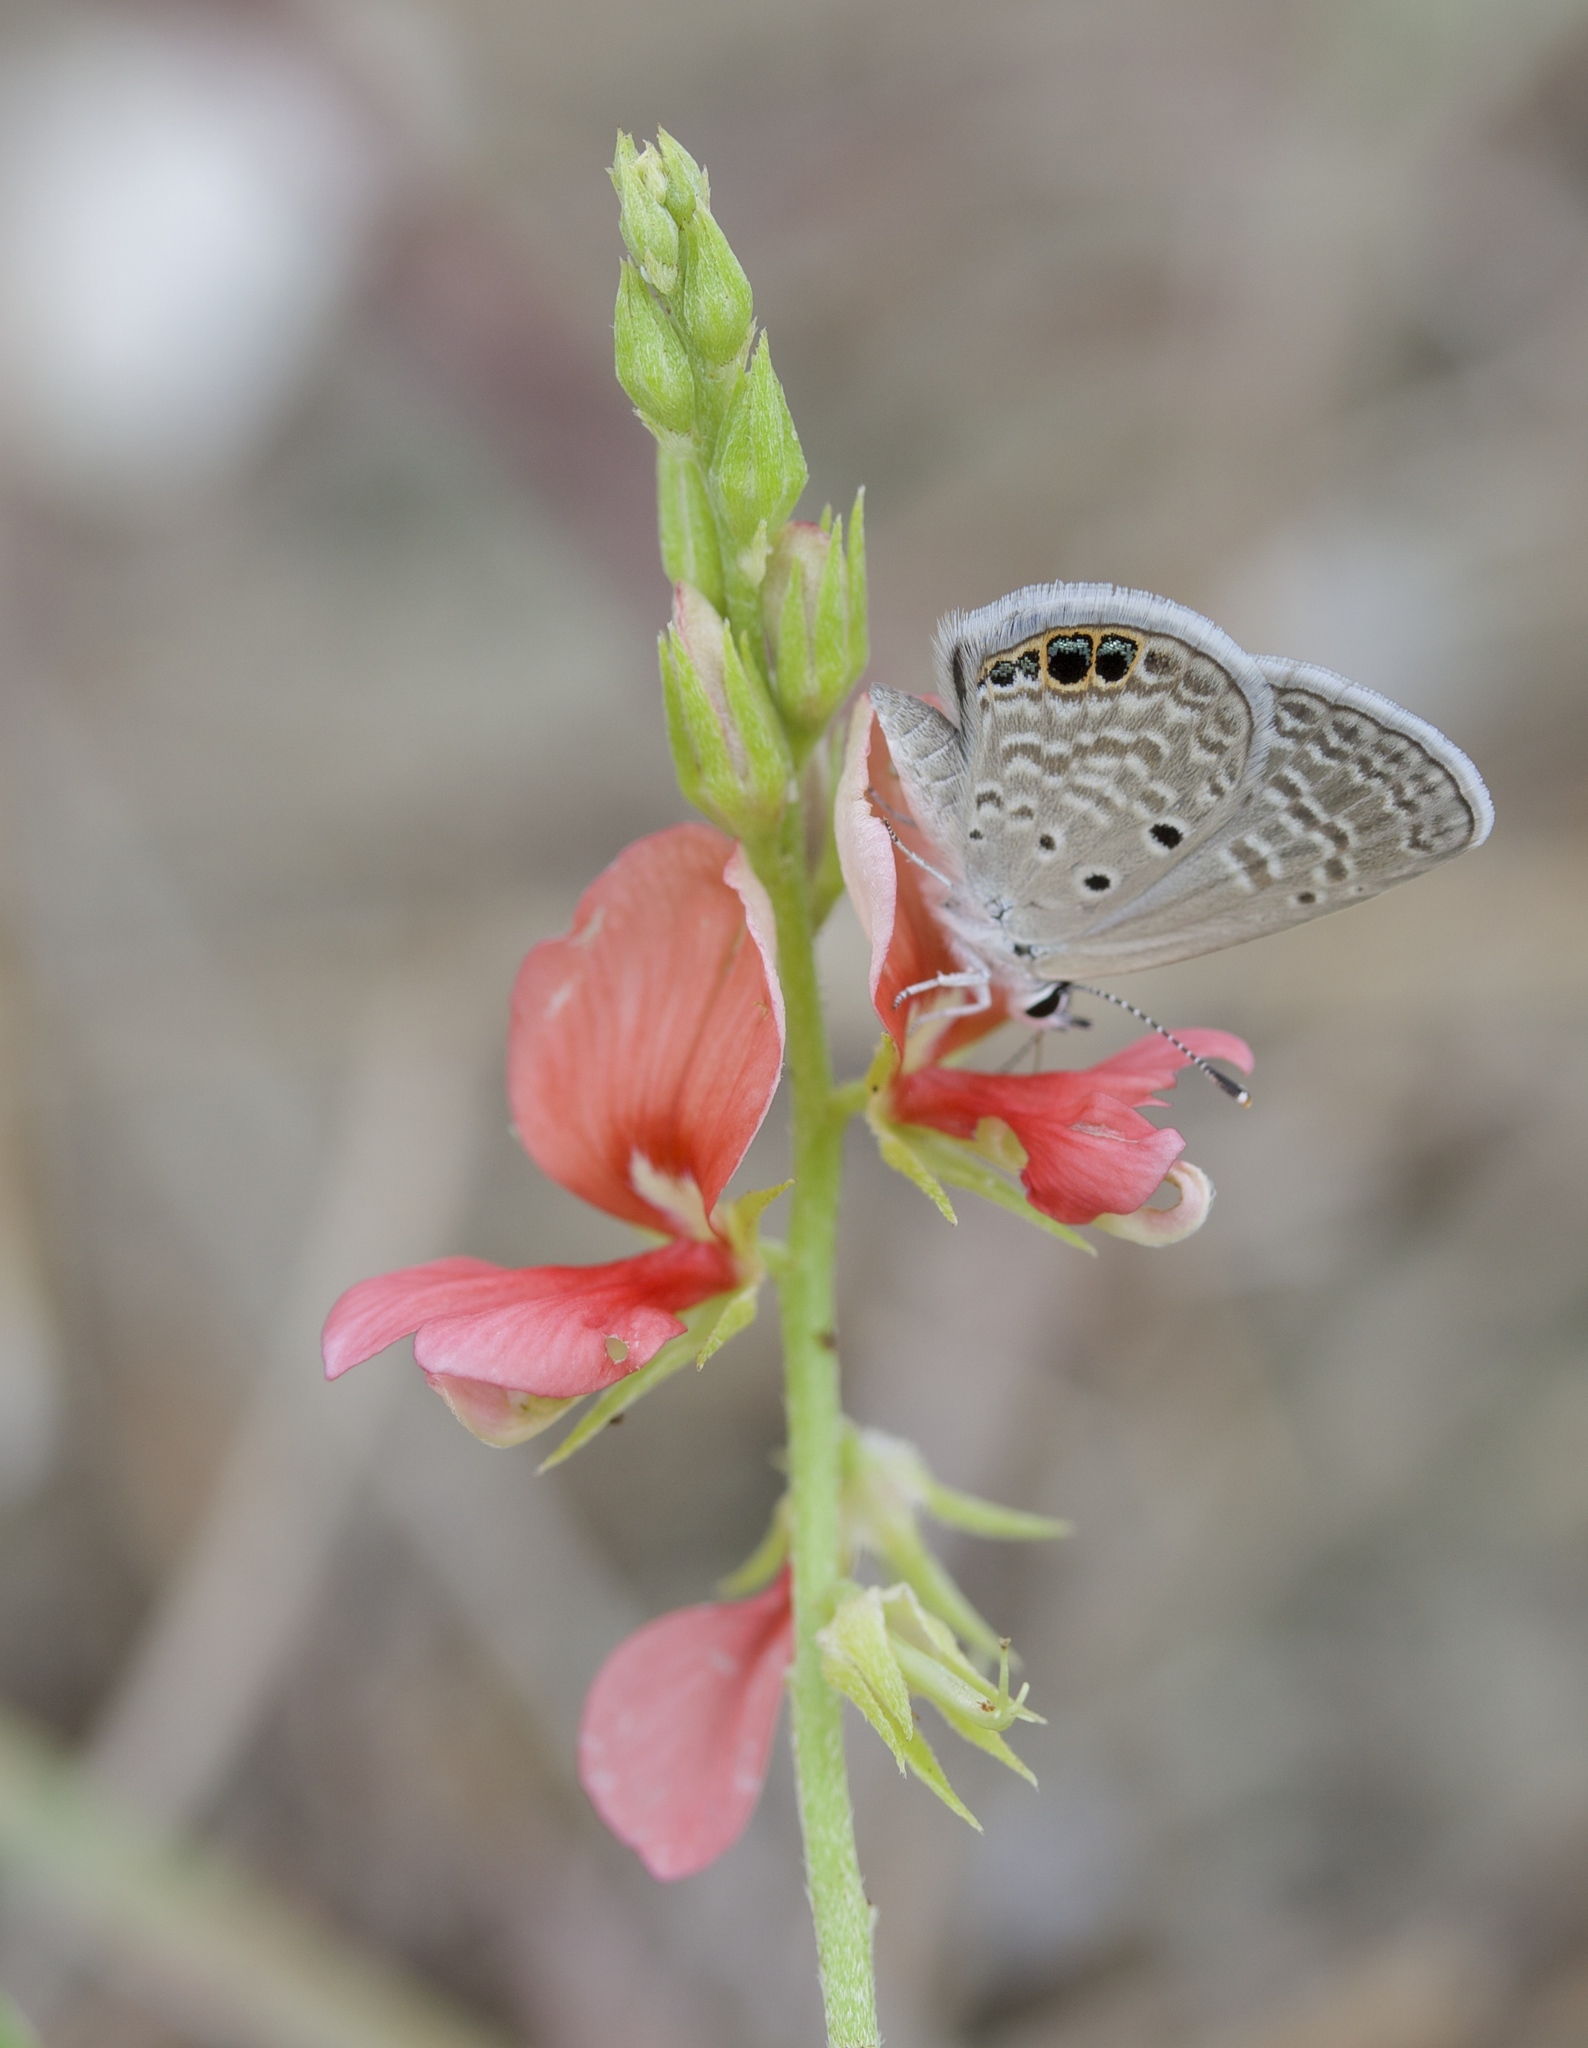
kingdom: Animalia
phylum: Arthropoda
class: Insecta
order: Lepidoptera
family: Lycaenidae
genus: Hemiargus
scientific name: Hemiargus ceraunus
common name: Ceraunus blue
